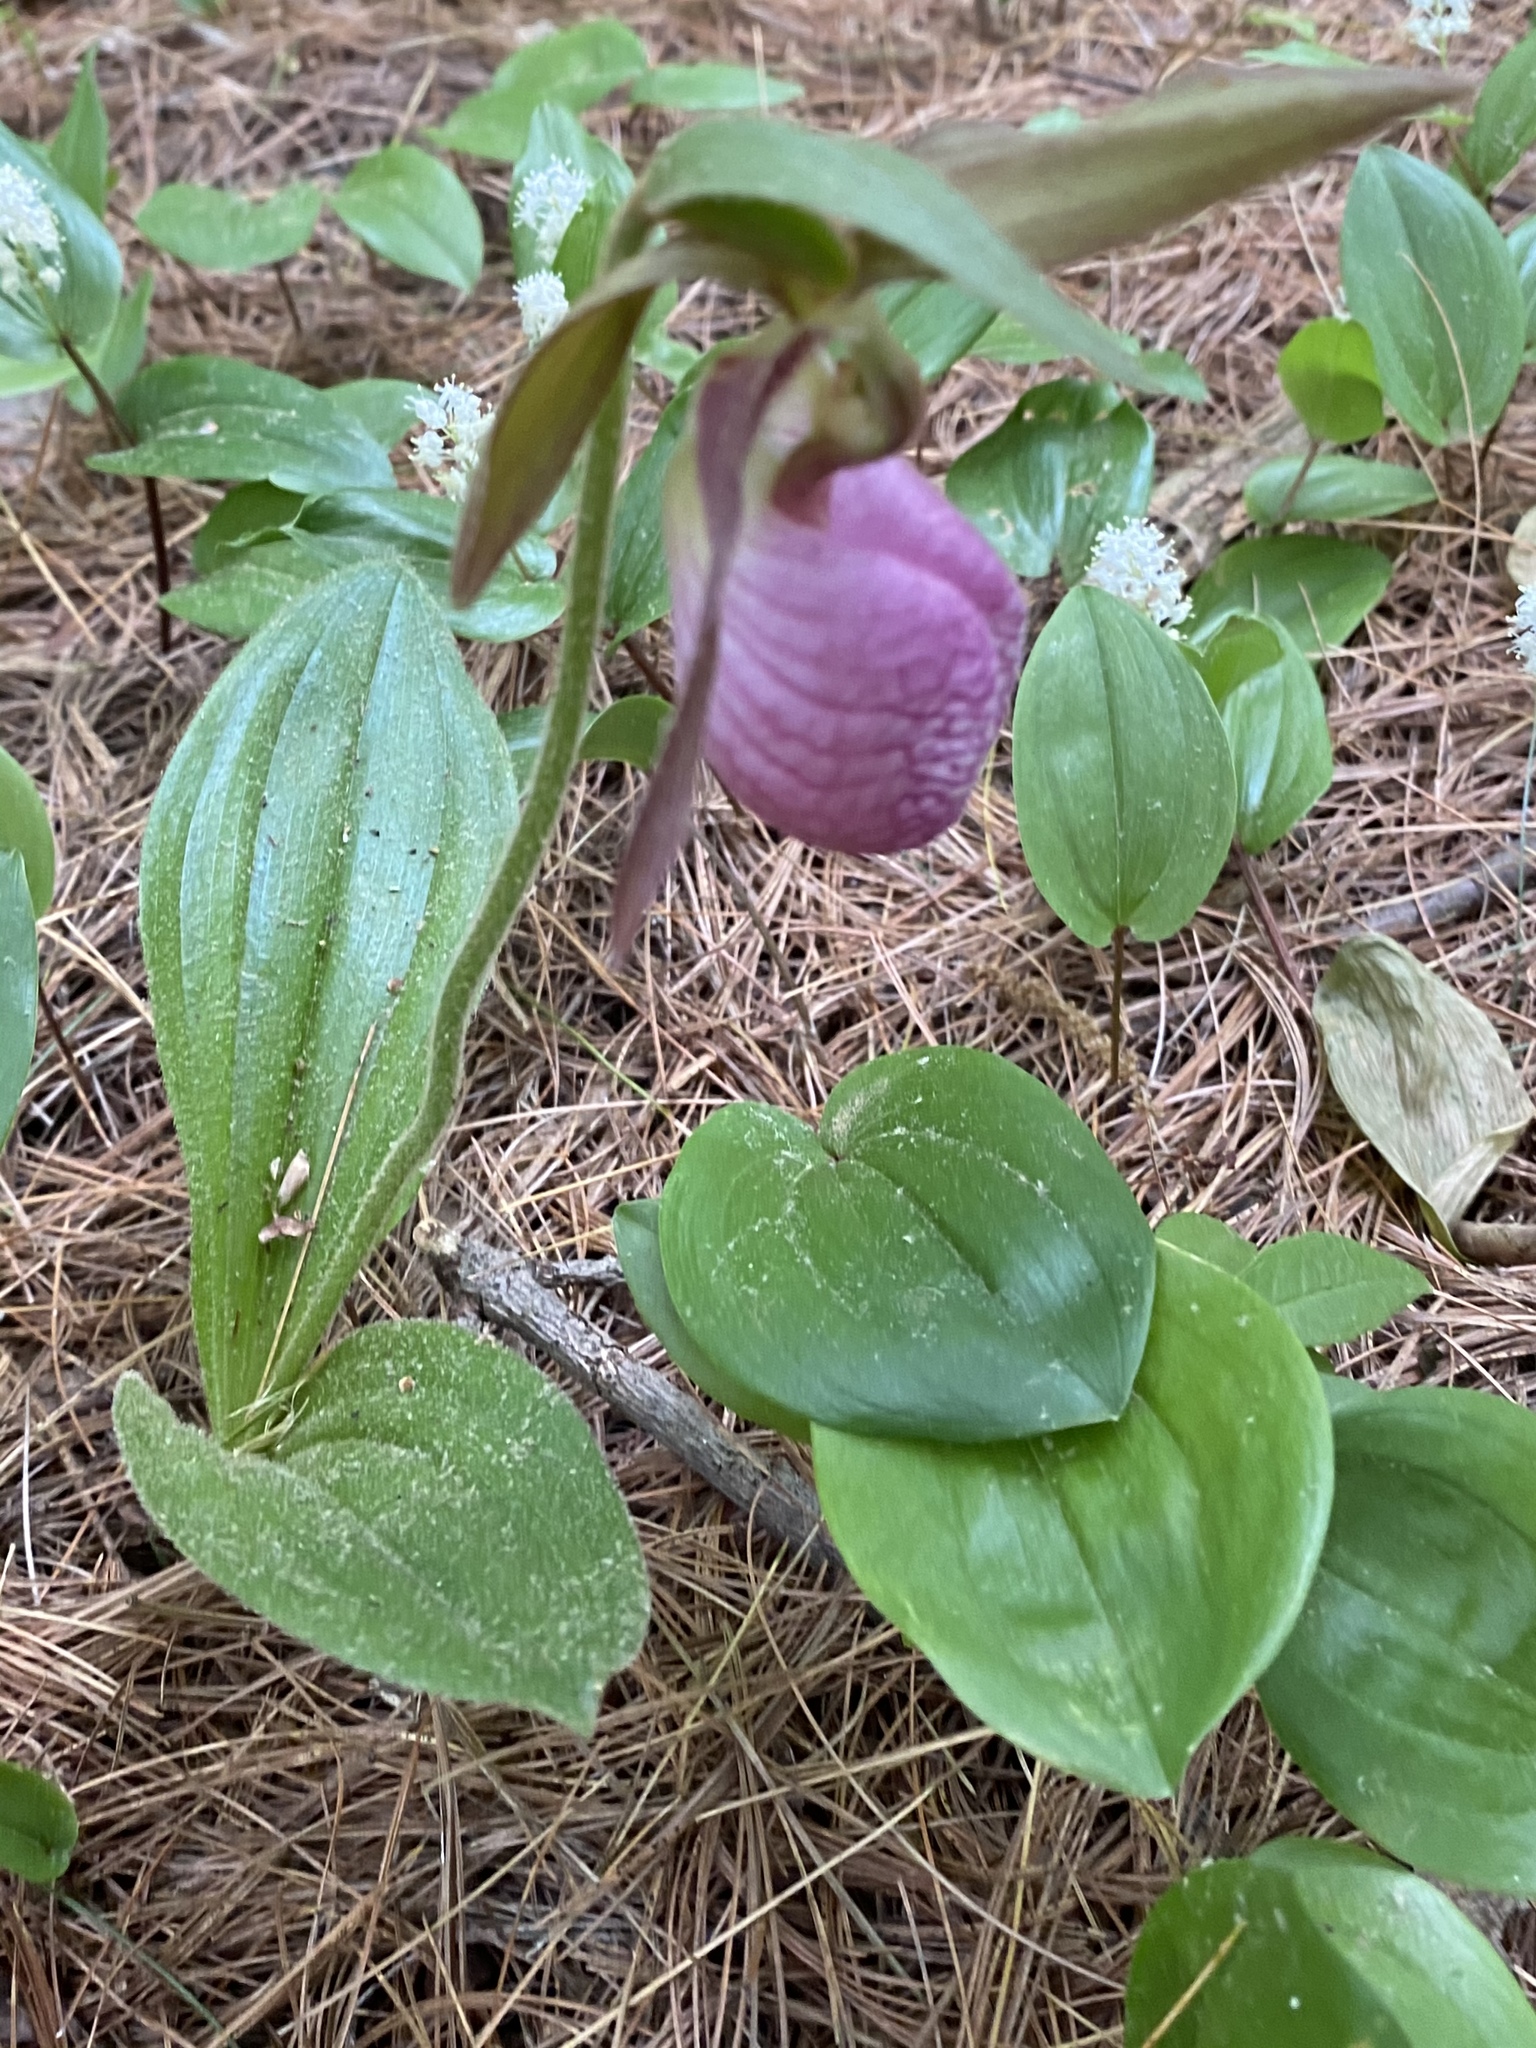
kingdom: Plantae
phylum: Tracheophyta
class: Liliopsida
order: Asparagales
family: Orchidaceae
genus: Cypripedium
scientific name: Cypripedium acaule
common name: Pink lady's-slipper
